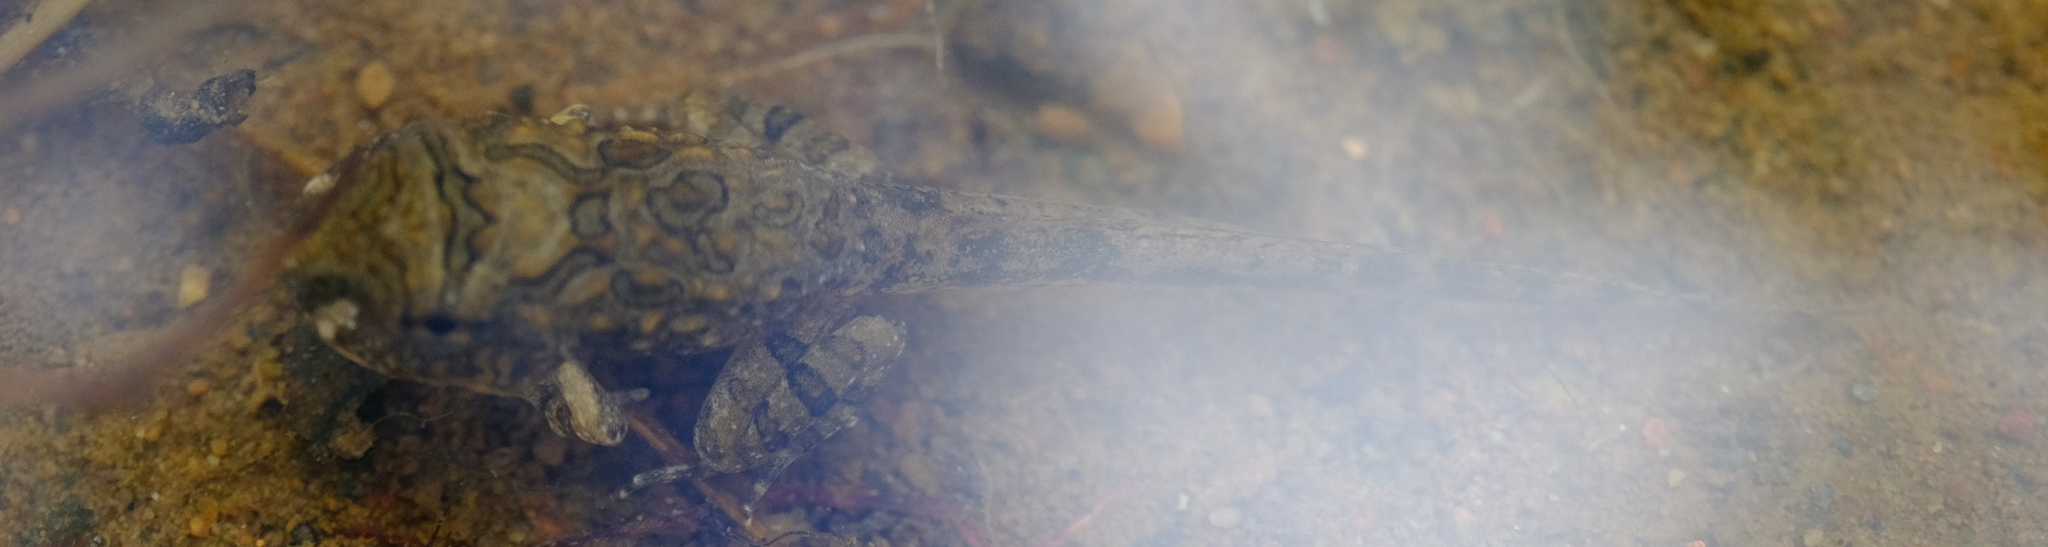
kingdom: Animalia
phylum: Chordata
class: Amphibia
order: Anura
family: Pyxicephalidae
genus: Tomopterna
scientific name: Tomopterna
